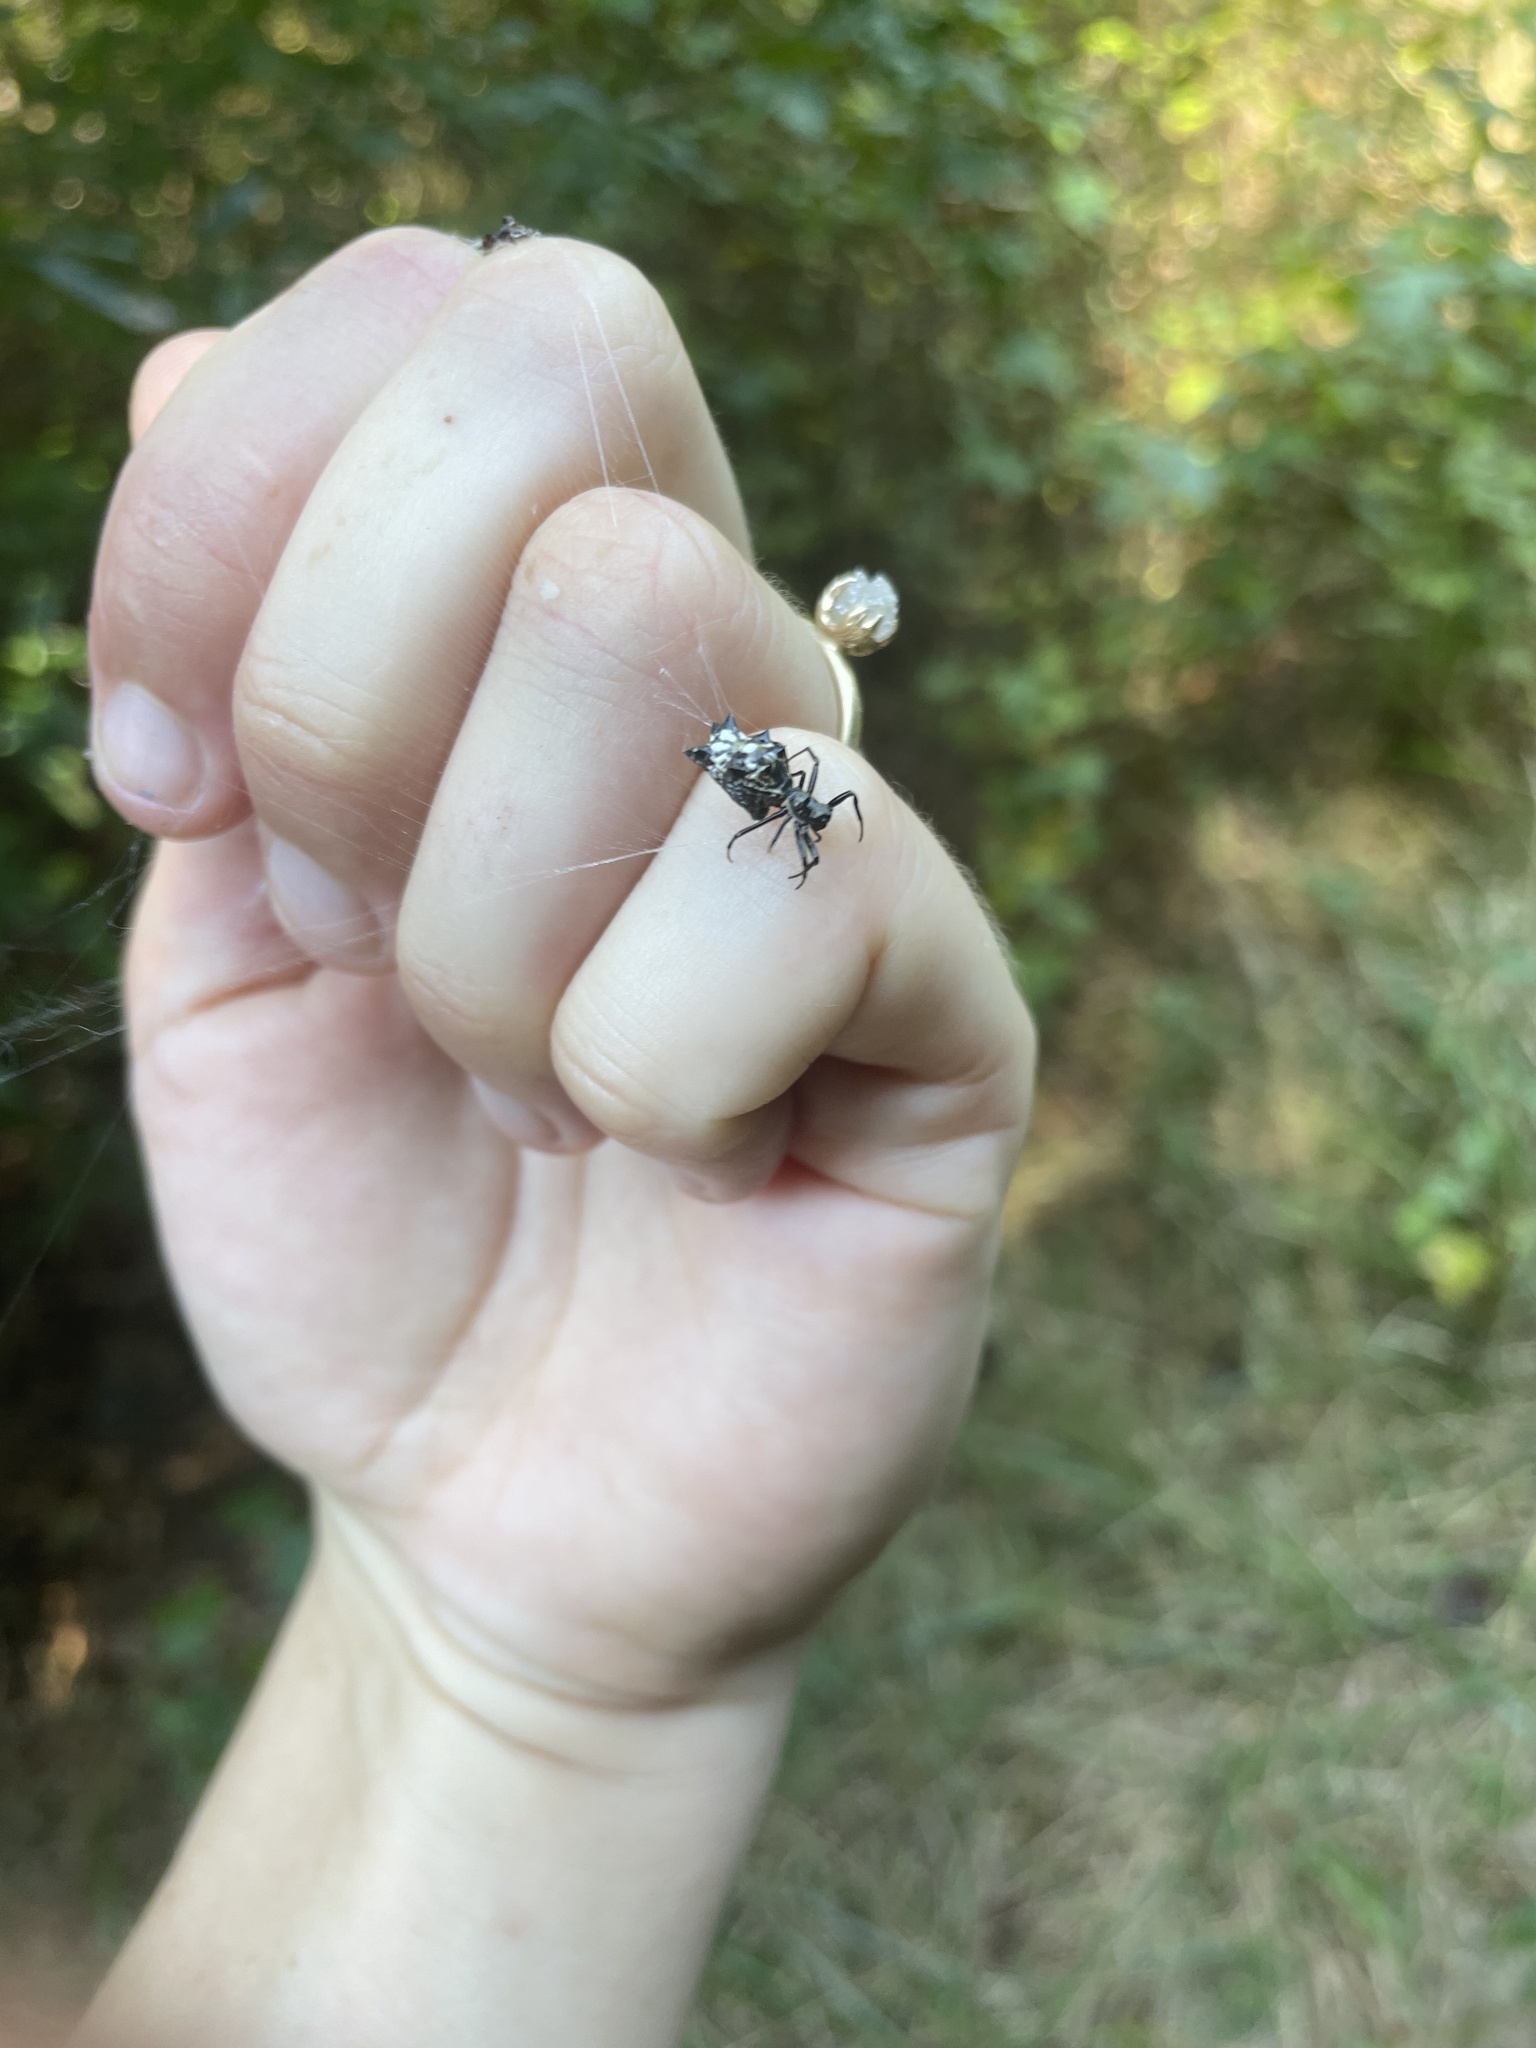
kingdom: Animalia
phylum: Arthropoda
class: Arachnida
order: Araneae
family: Araneidae
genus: Micrathena
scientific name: Micrathena gracilis
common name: Orb weavers
